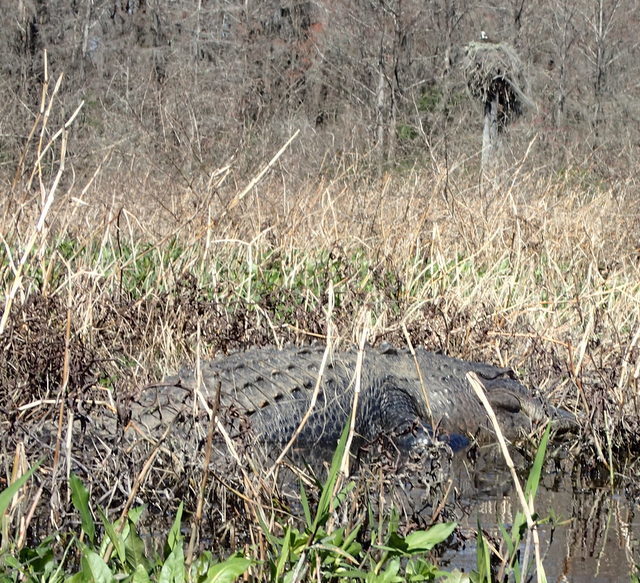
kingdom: Animalia
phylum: Chordata
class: Crocodylia
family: Alligatoridae
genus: Alligator
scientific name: Alligator mississippiensis
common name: American alligator
